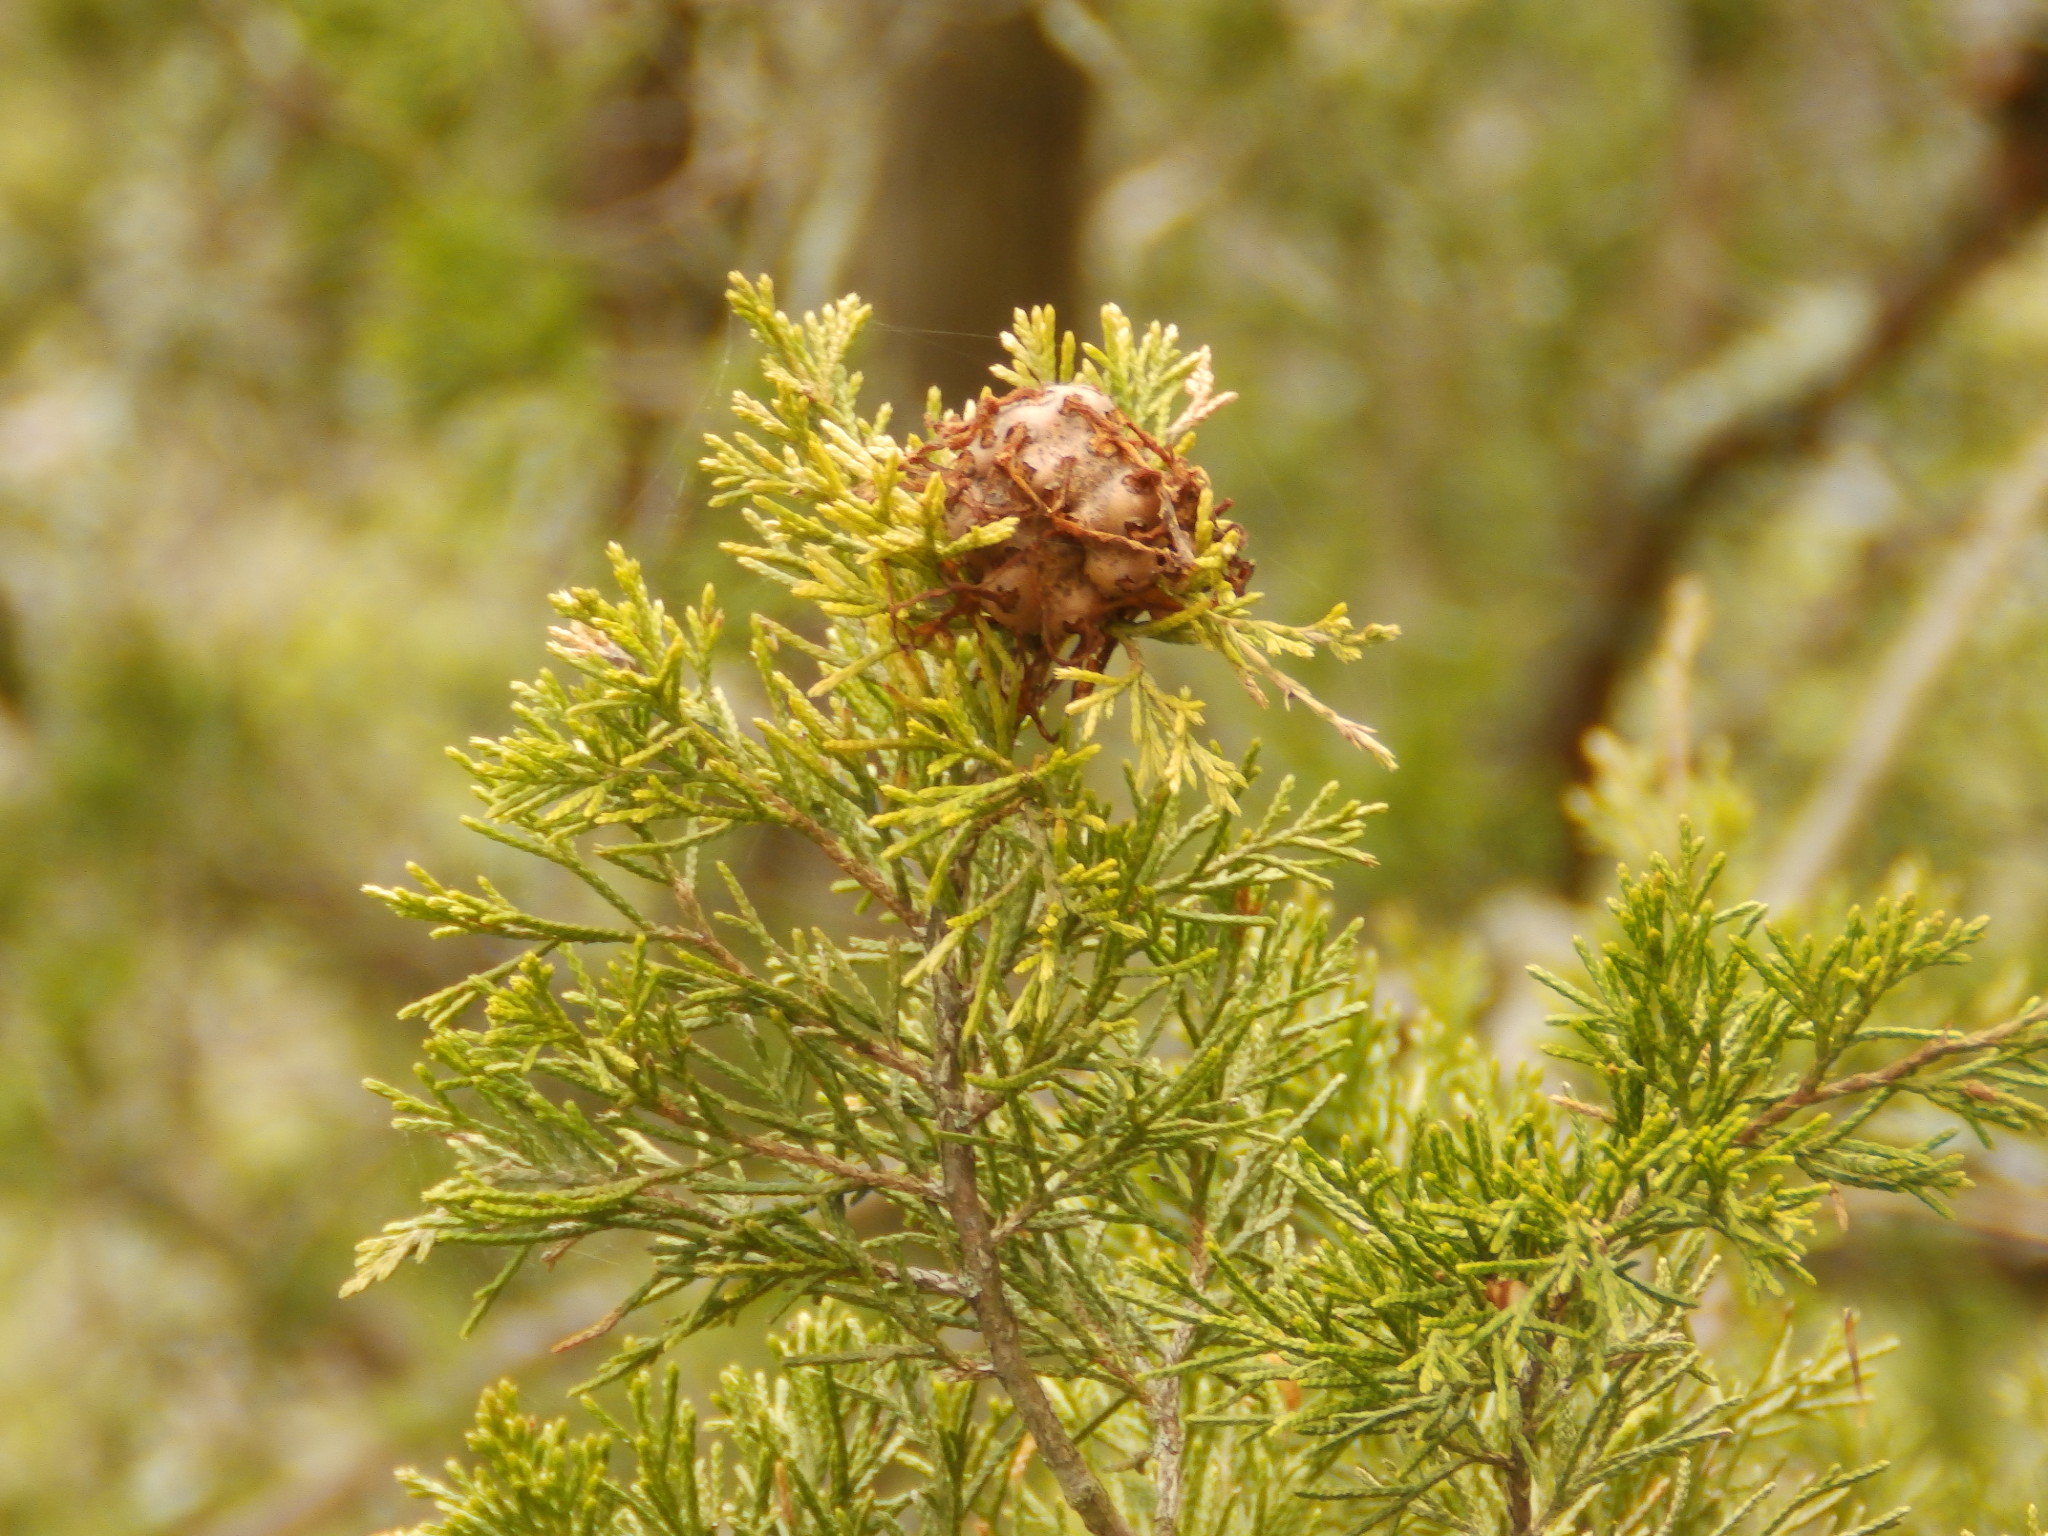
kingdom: Fungi
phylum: Basidiomycota
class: Pucciniomycetes
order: Pucciniales
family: Gymnosporangiaceae
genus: Gymnosporangium
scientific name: Gymnosporangium juniperi-virginianae
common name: Juniper-apple rust
